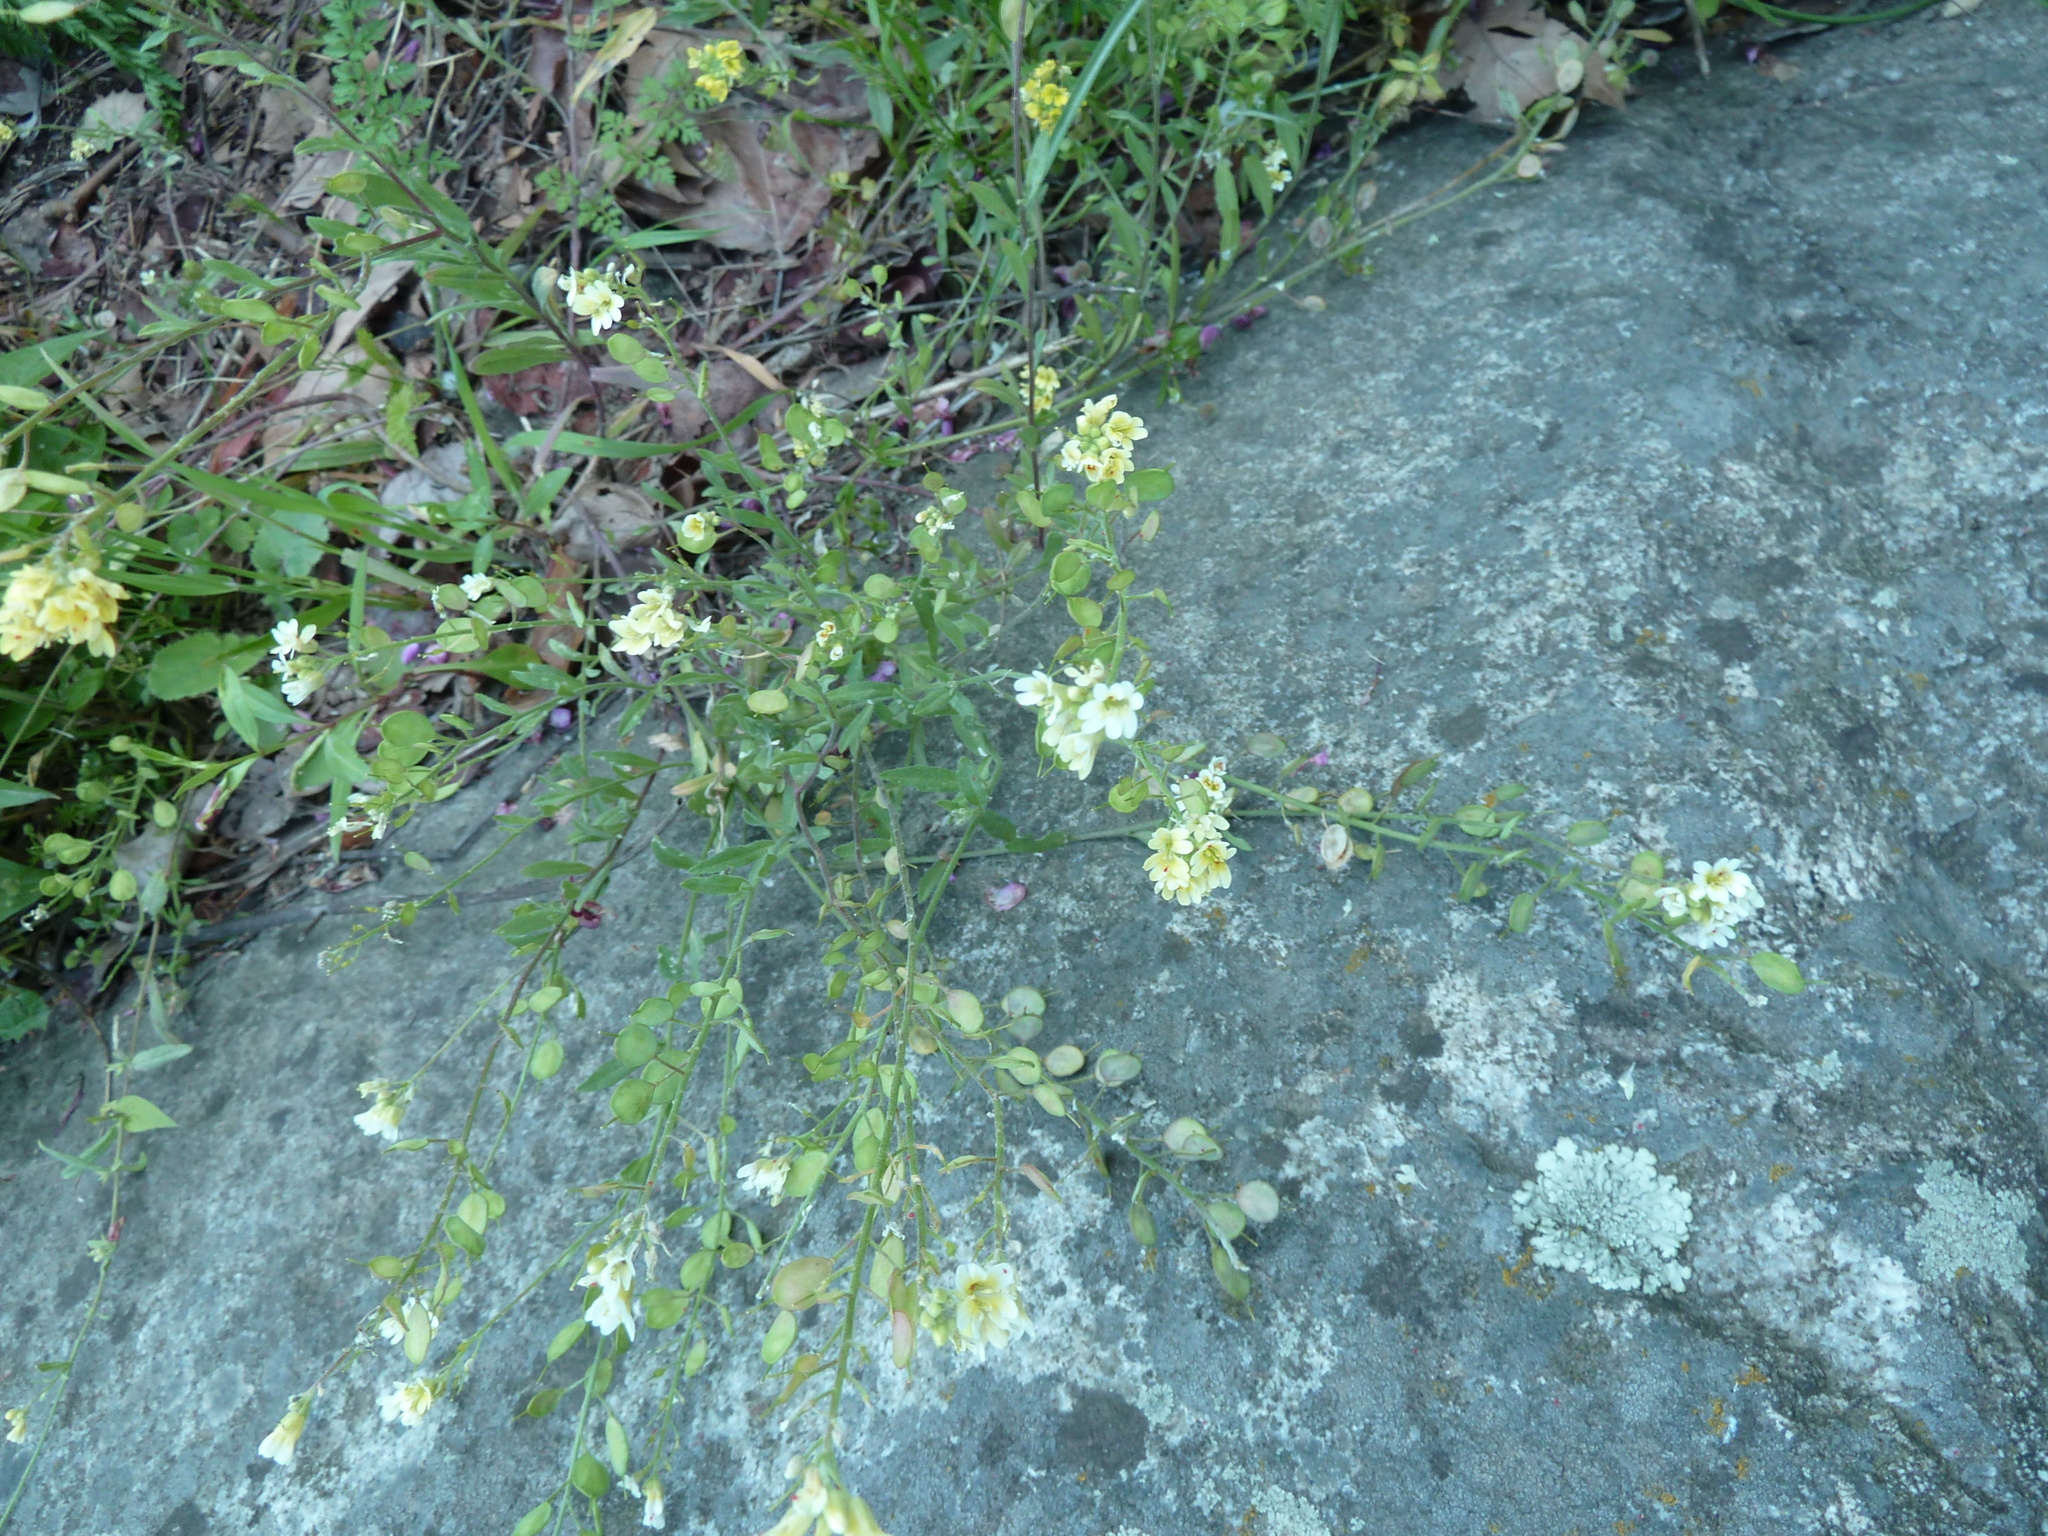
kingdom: Plantae
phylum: Tracheophyta
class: Magnoliopsida
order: Brassicales
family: Brassicaceae
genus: Berteroa
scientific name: Berteroa orbiculata
